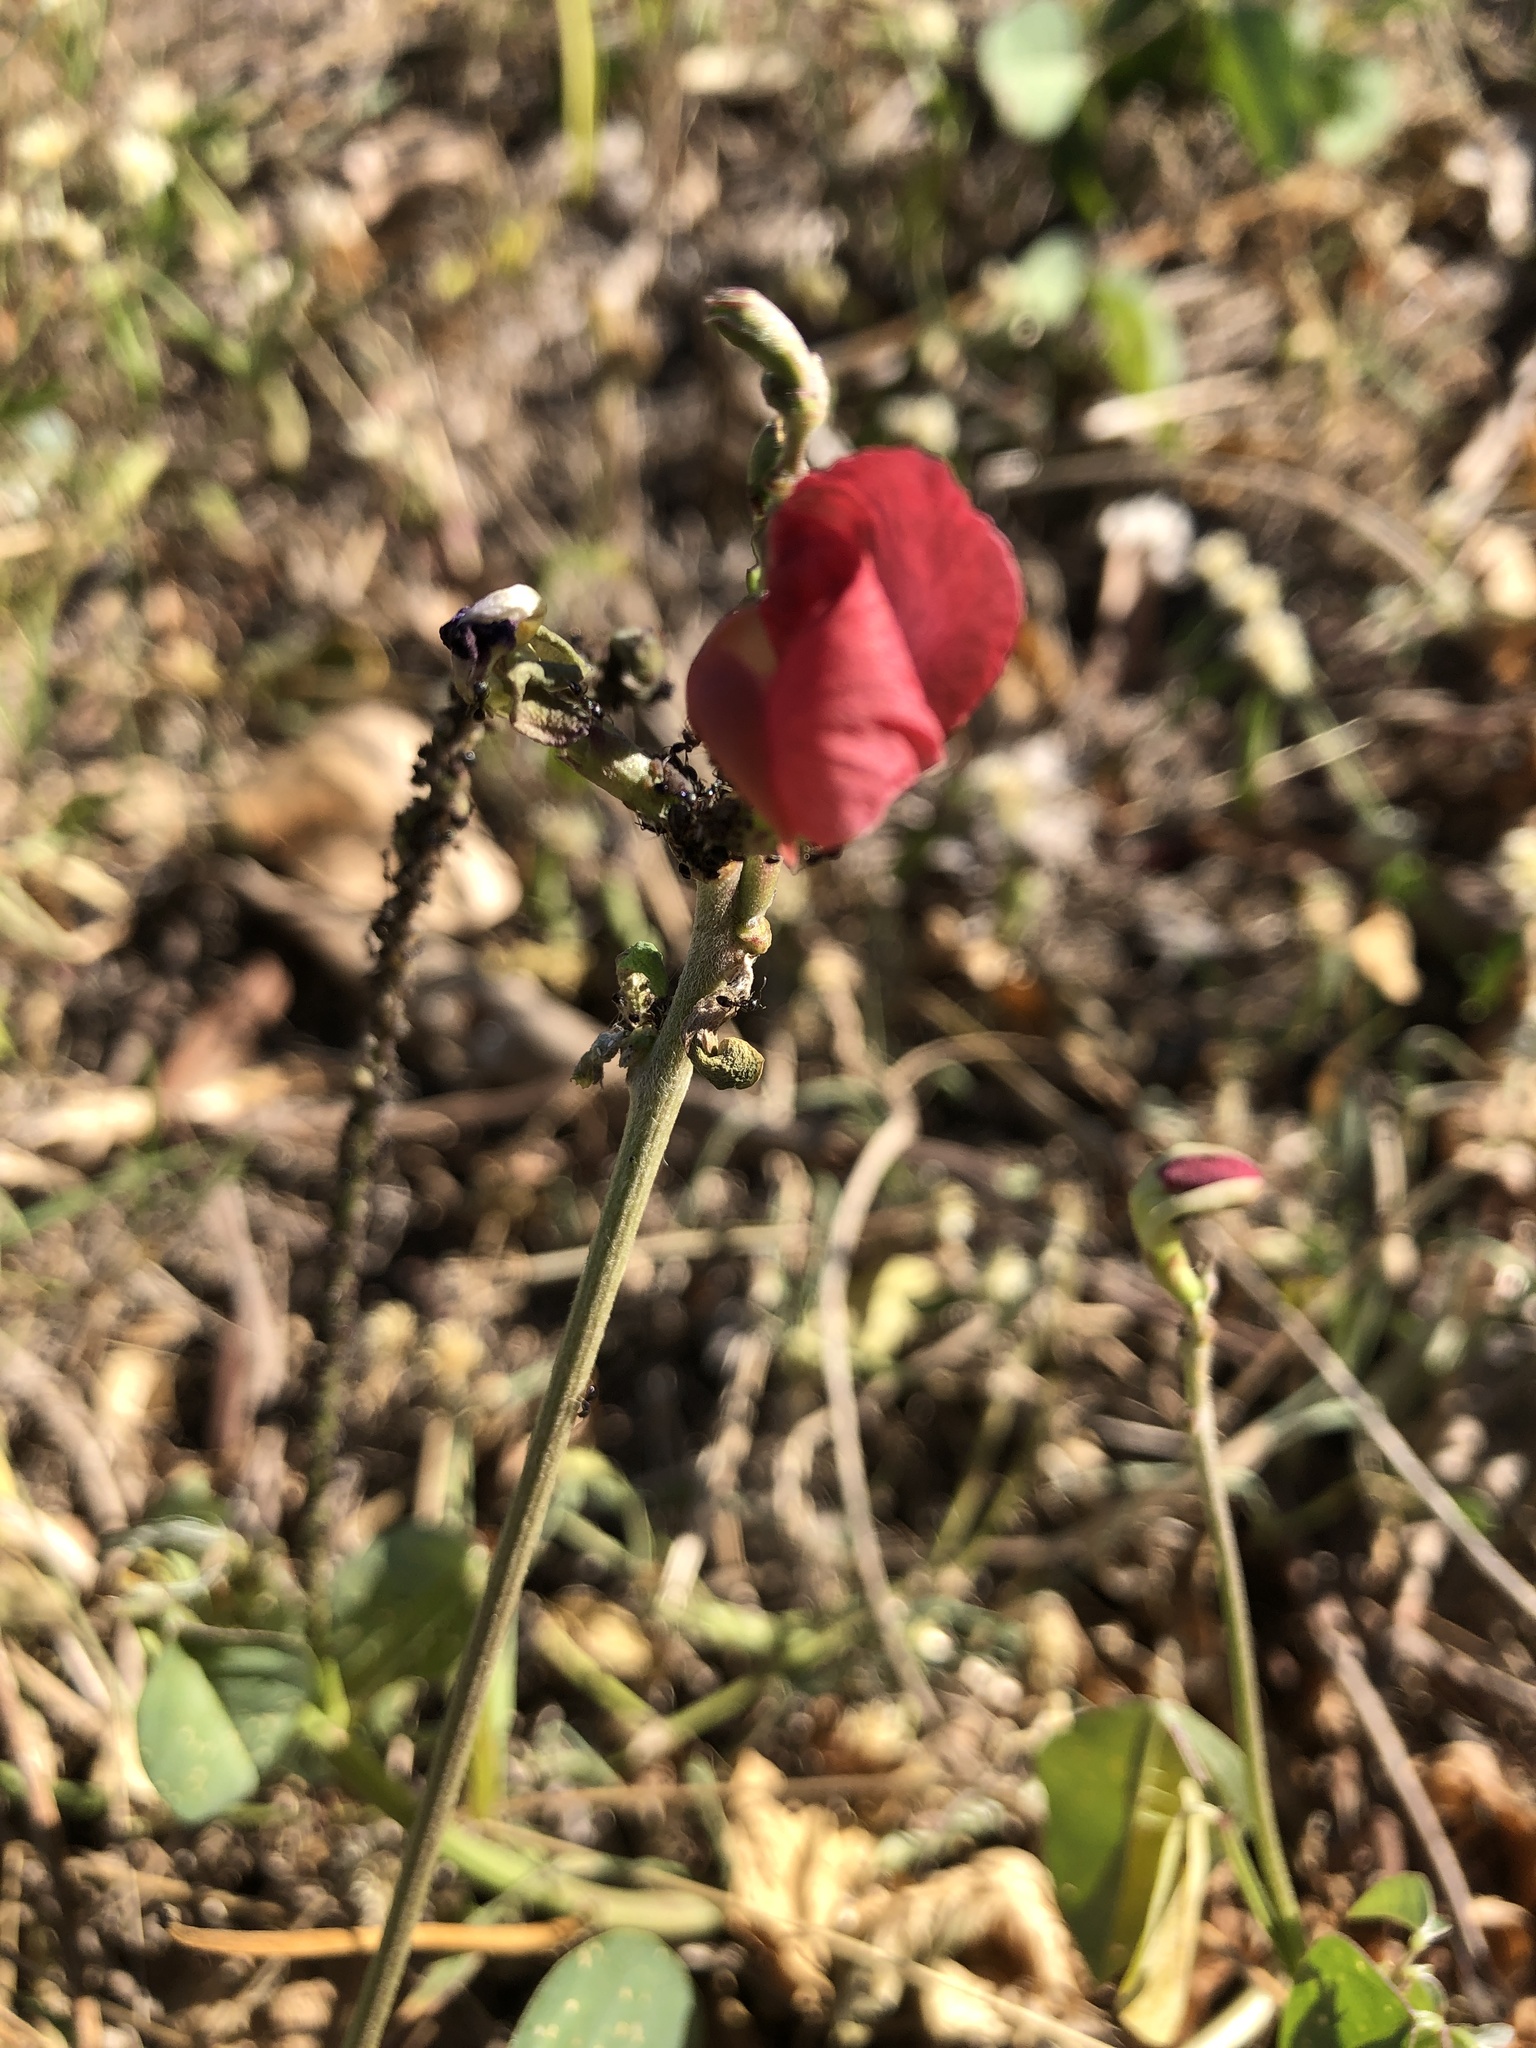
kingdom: Plantae
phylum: Tracheophyta
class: Magnoliopsida
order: Fabales
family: Fabaceae
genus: Macroptilium
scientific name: Macroptilium lathyroides
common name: Wild bushbean
